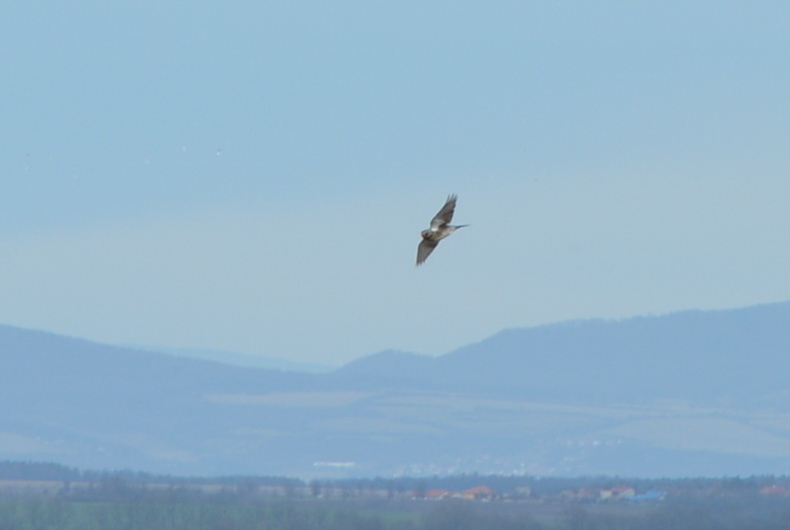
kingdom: Animalia
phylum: Chordata
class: Aves
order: Passeriformes
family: Turdidae
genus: Turdus
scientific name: Turdus pilaris
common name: Fieldfare
